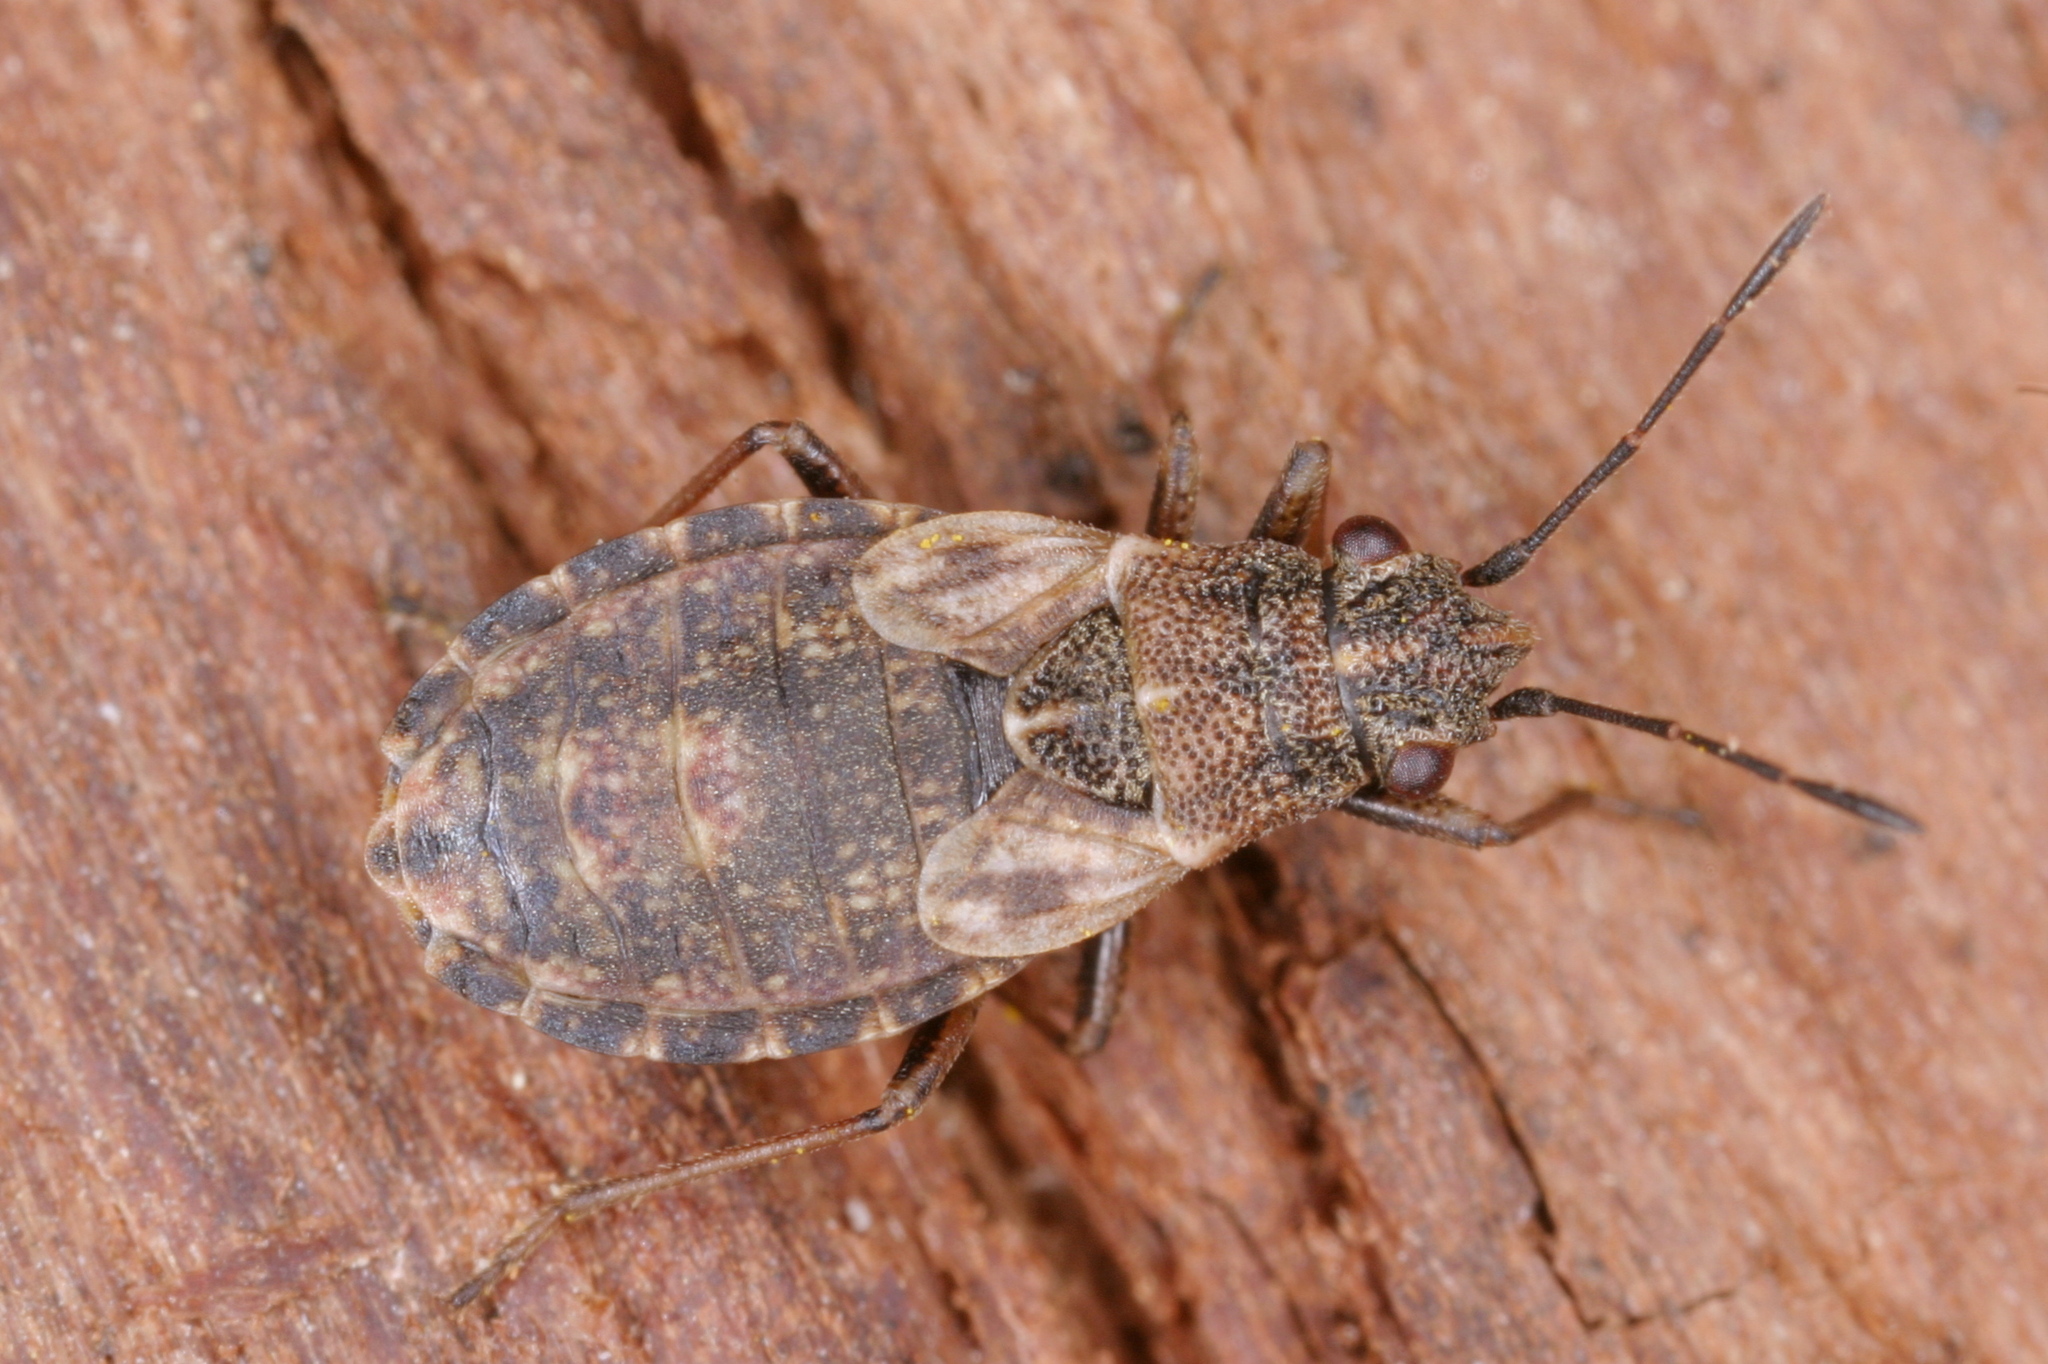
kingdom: Animalia
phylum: Arthropoda
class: Insecta
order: Hemiptera
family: Lygaeidae
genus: Nithecus
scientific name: Nithecus jacobaeae
